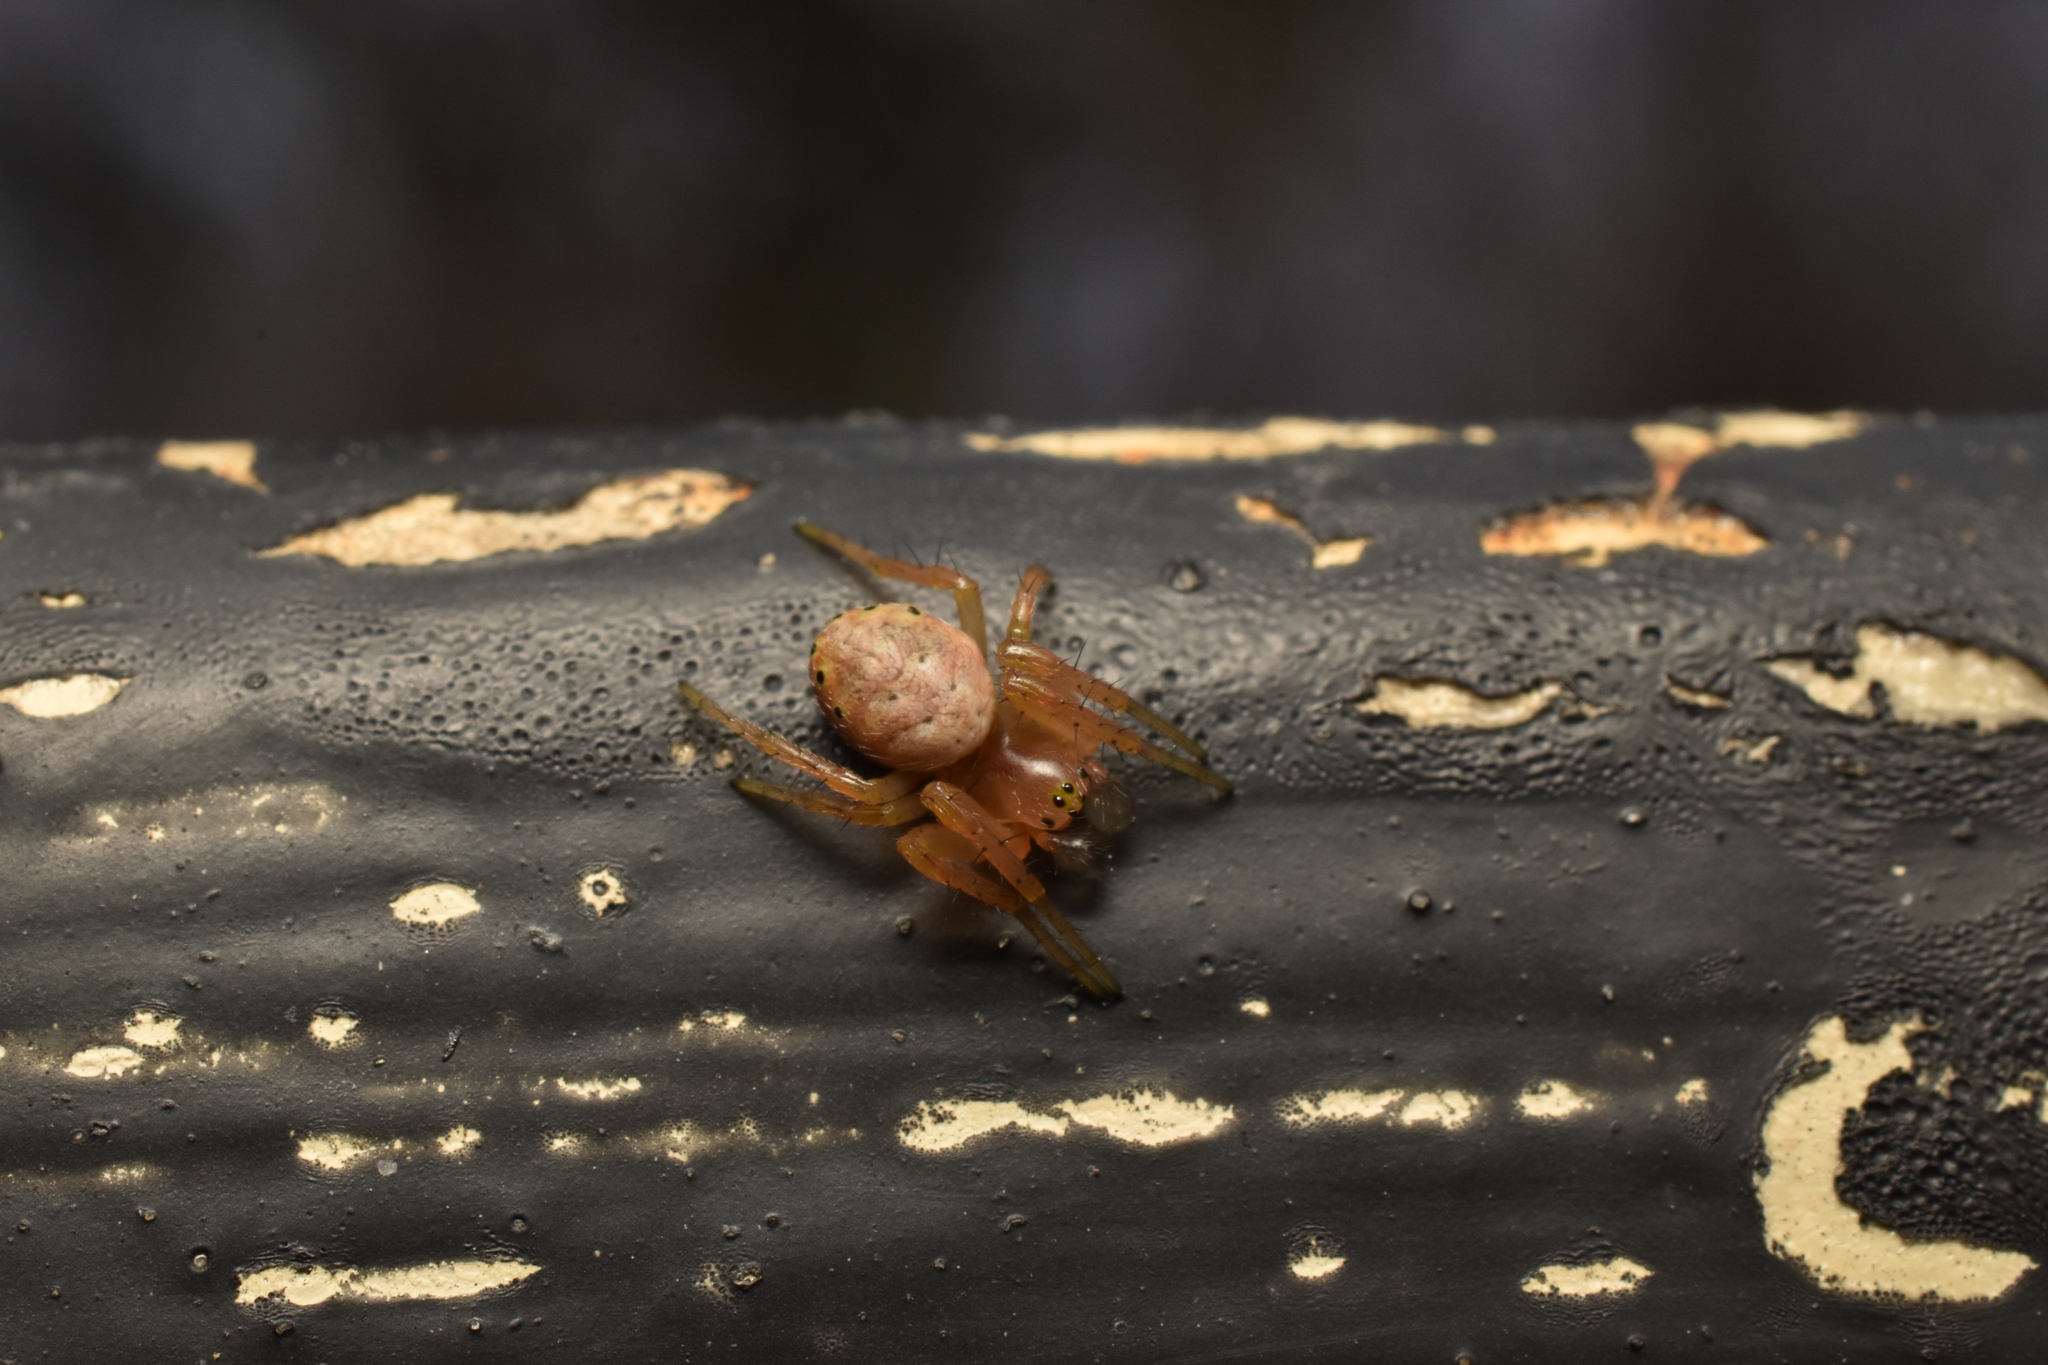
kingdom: Animalia
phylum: Arthropoda
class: Arachnida
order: Araneae
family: Araneidae
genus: Araniella
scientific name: Araniella displicata
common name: Sixspotted orb weaver
